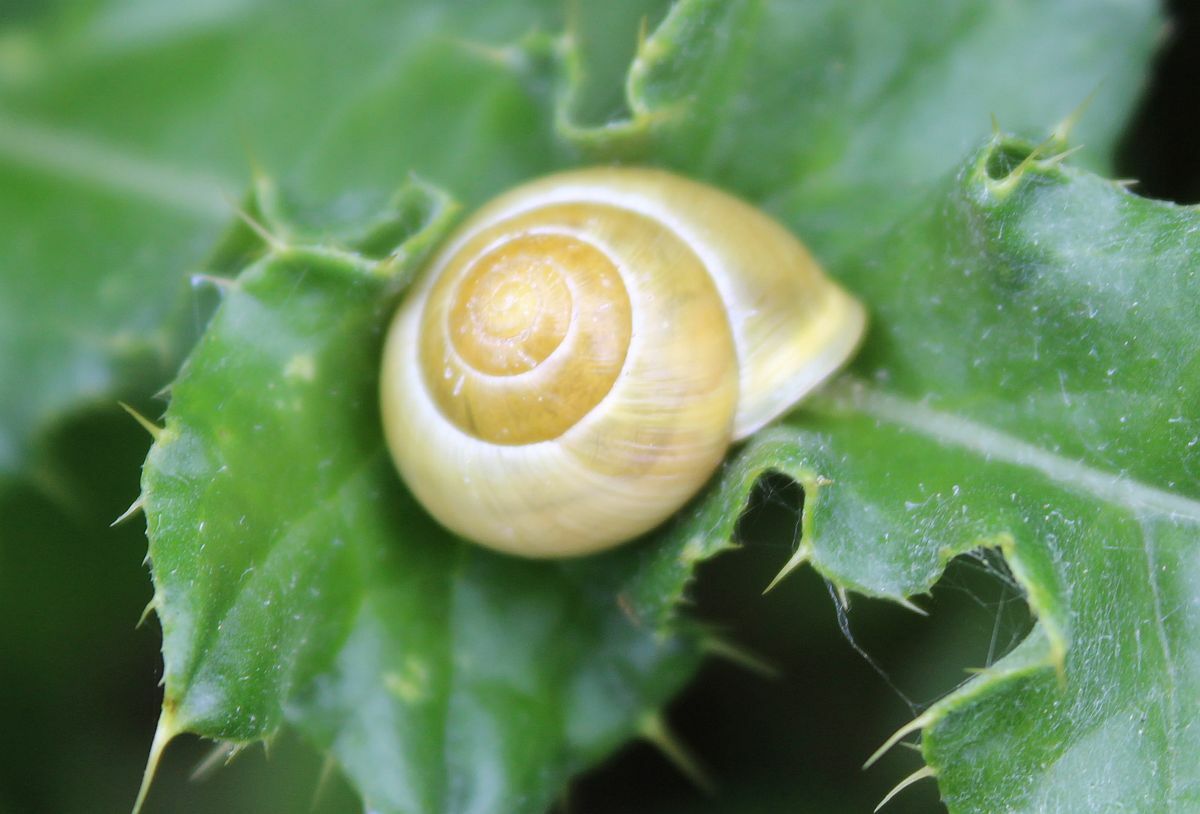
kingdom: Animalia
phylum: Mollusca
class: Gastropoda
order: Stylommatophora
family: Helicidae
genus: Cepaea
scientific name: Cepaea hortensis
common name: White-lip gardensnail
